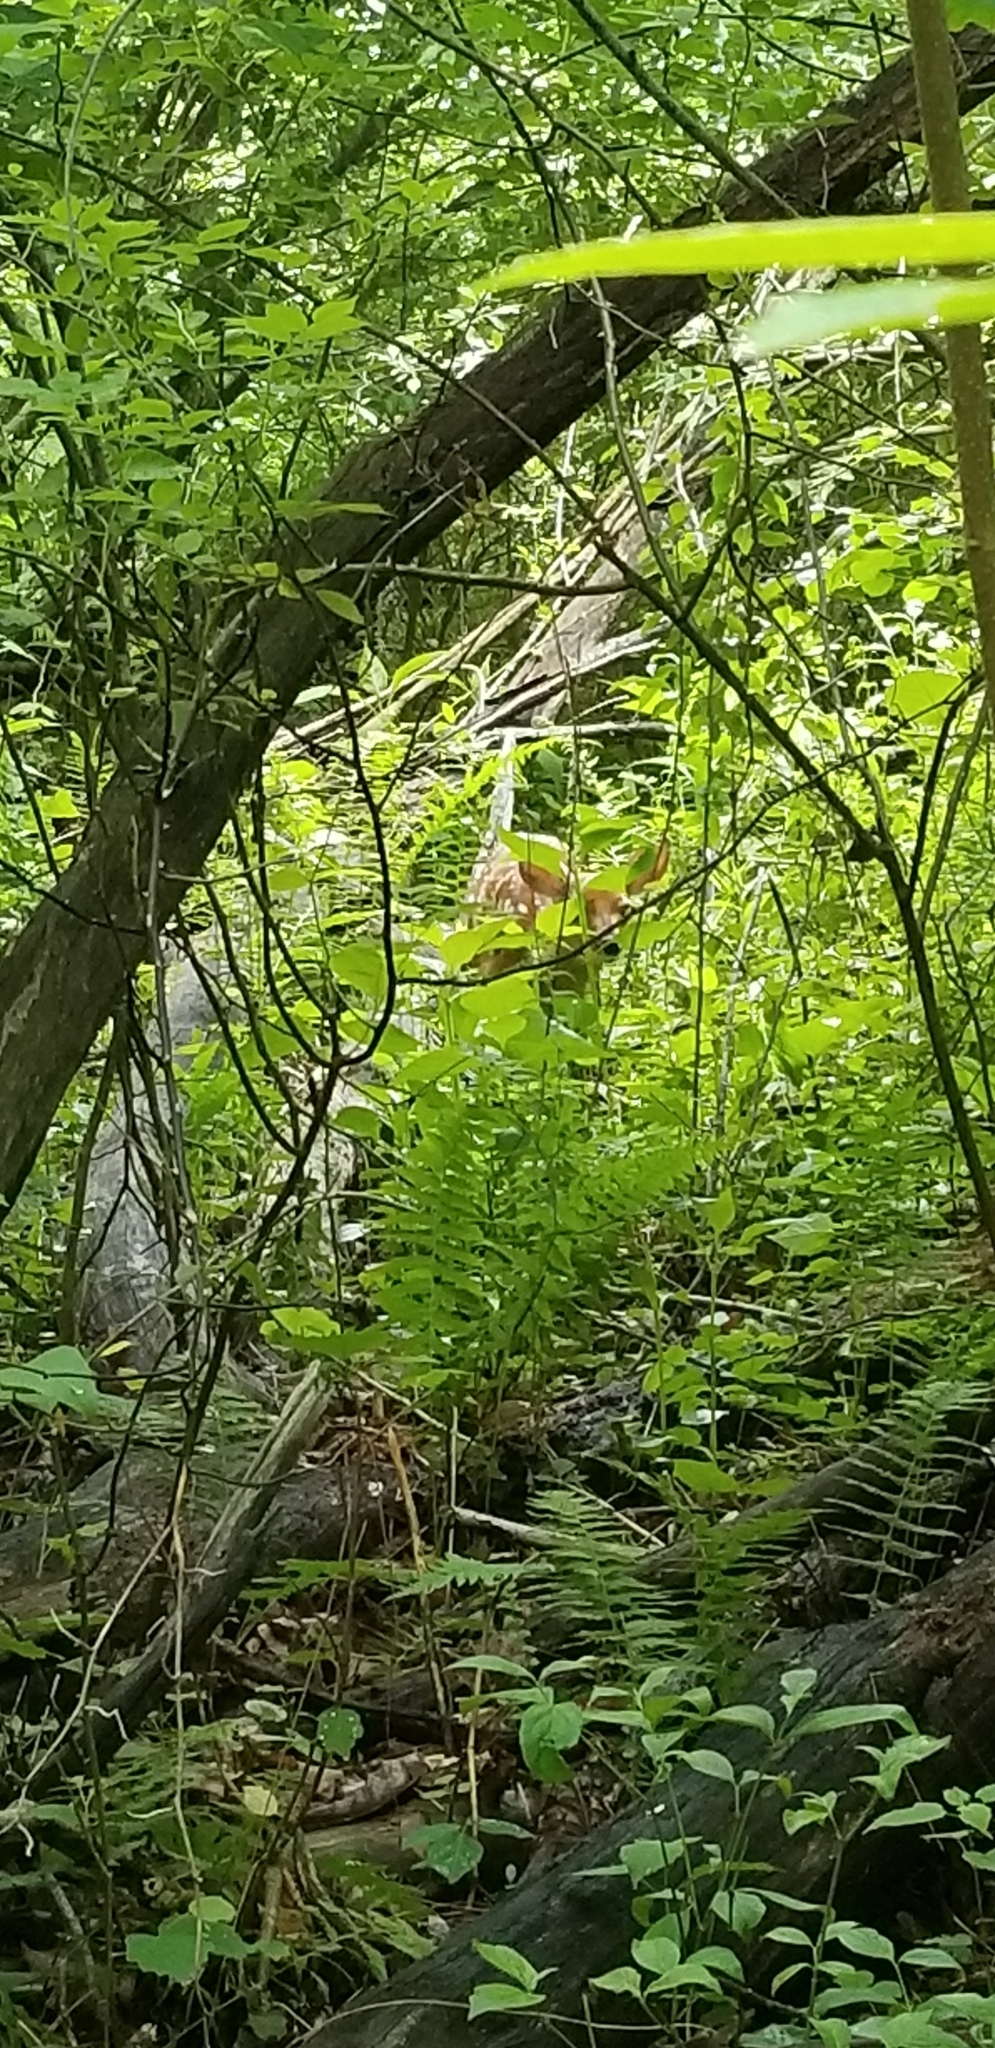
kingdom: Animalia
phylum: Chordata
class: Mammalia
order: Artiodactyla
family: Cervidae
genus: Odocoileus
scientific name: Odocoileus virginianus
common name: White-tailed deer
